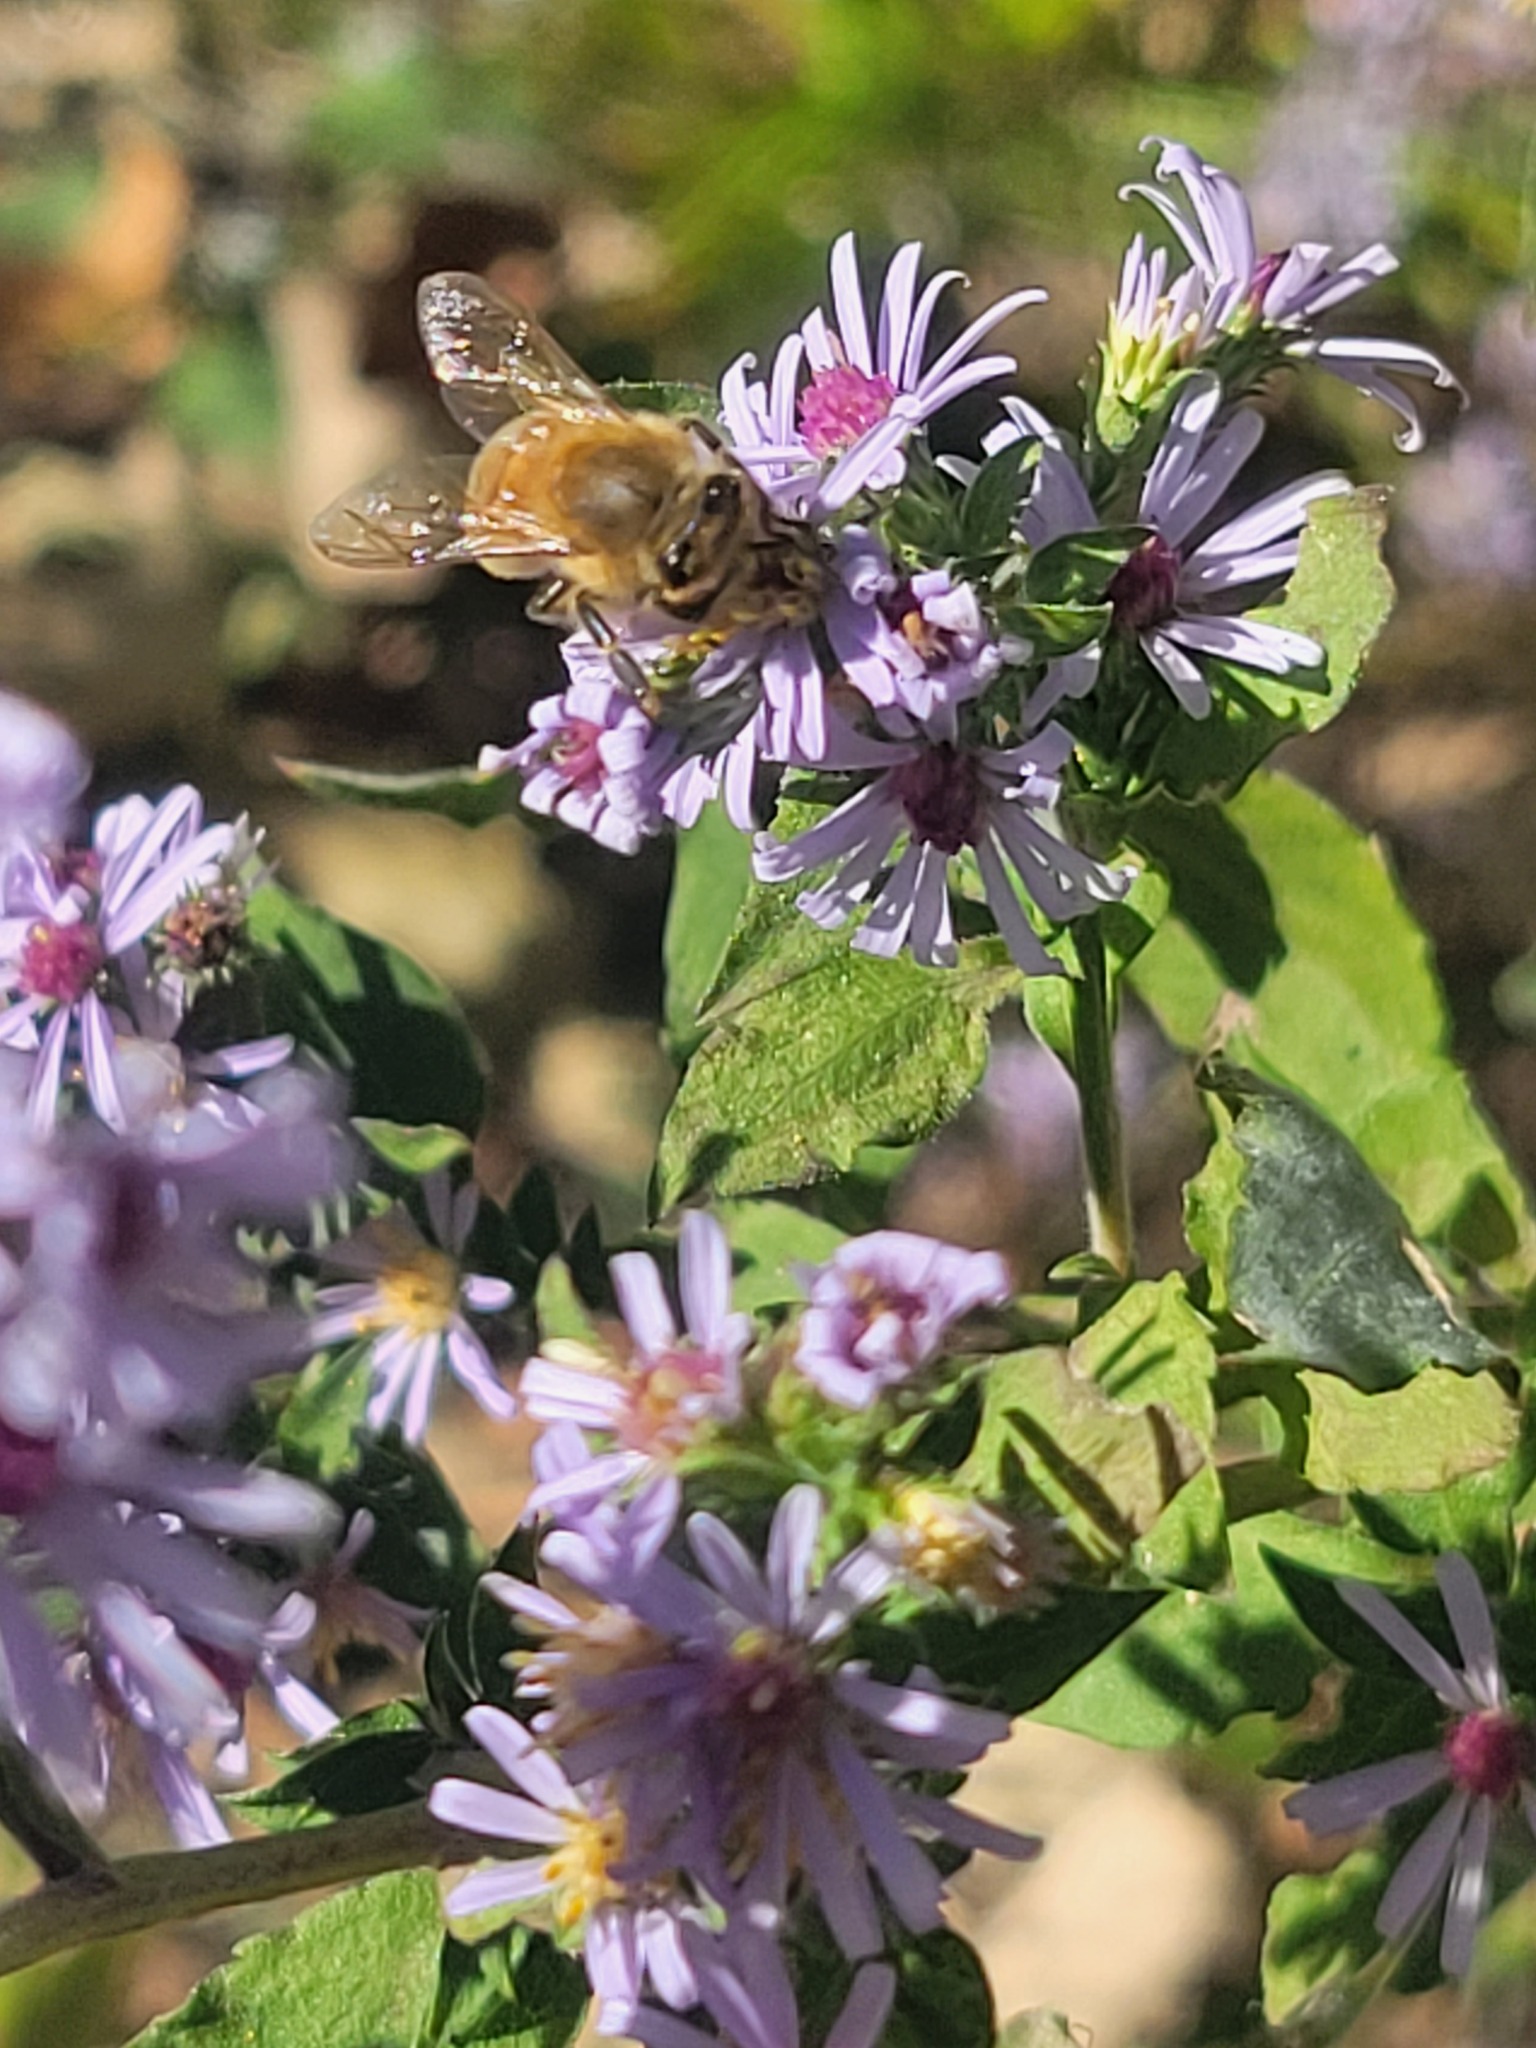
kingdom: Animalia
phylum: Arthropoda
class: Insecta
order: Hymenoptera
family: Apidae
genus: Apis
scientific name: Apis mellifera
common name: Honey bee
